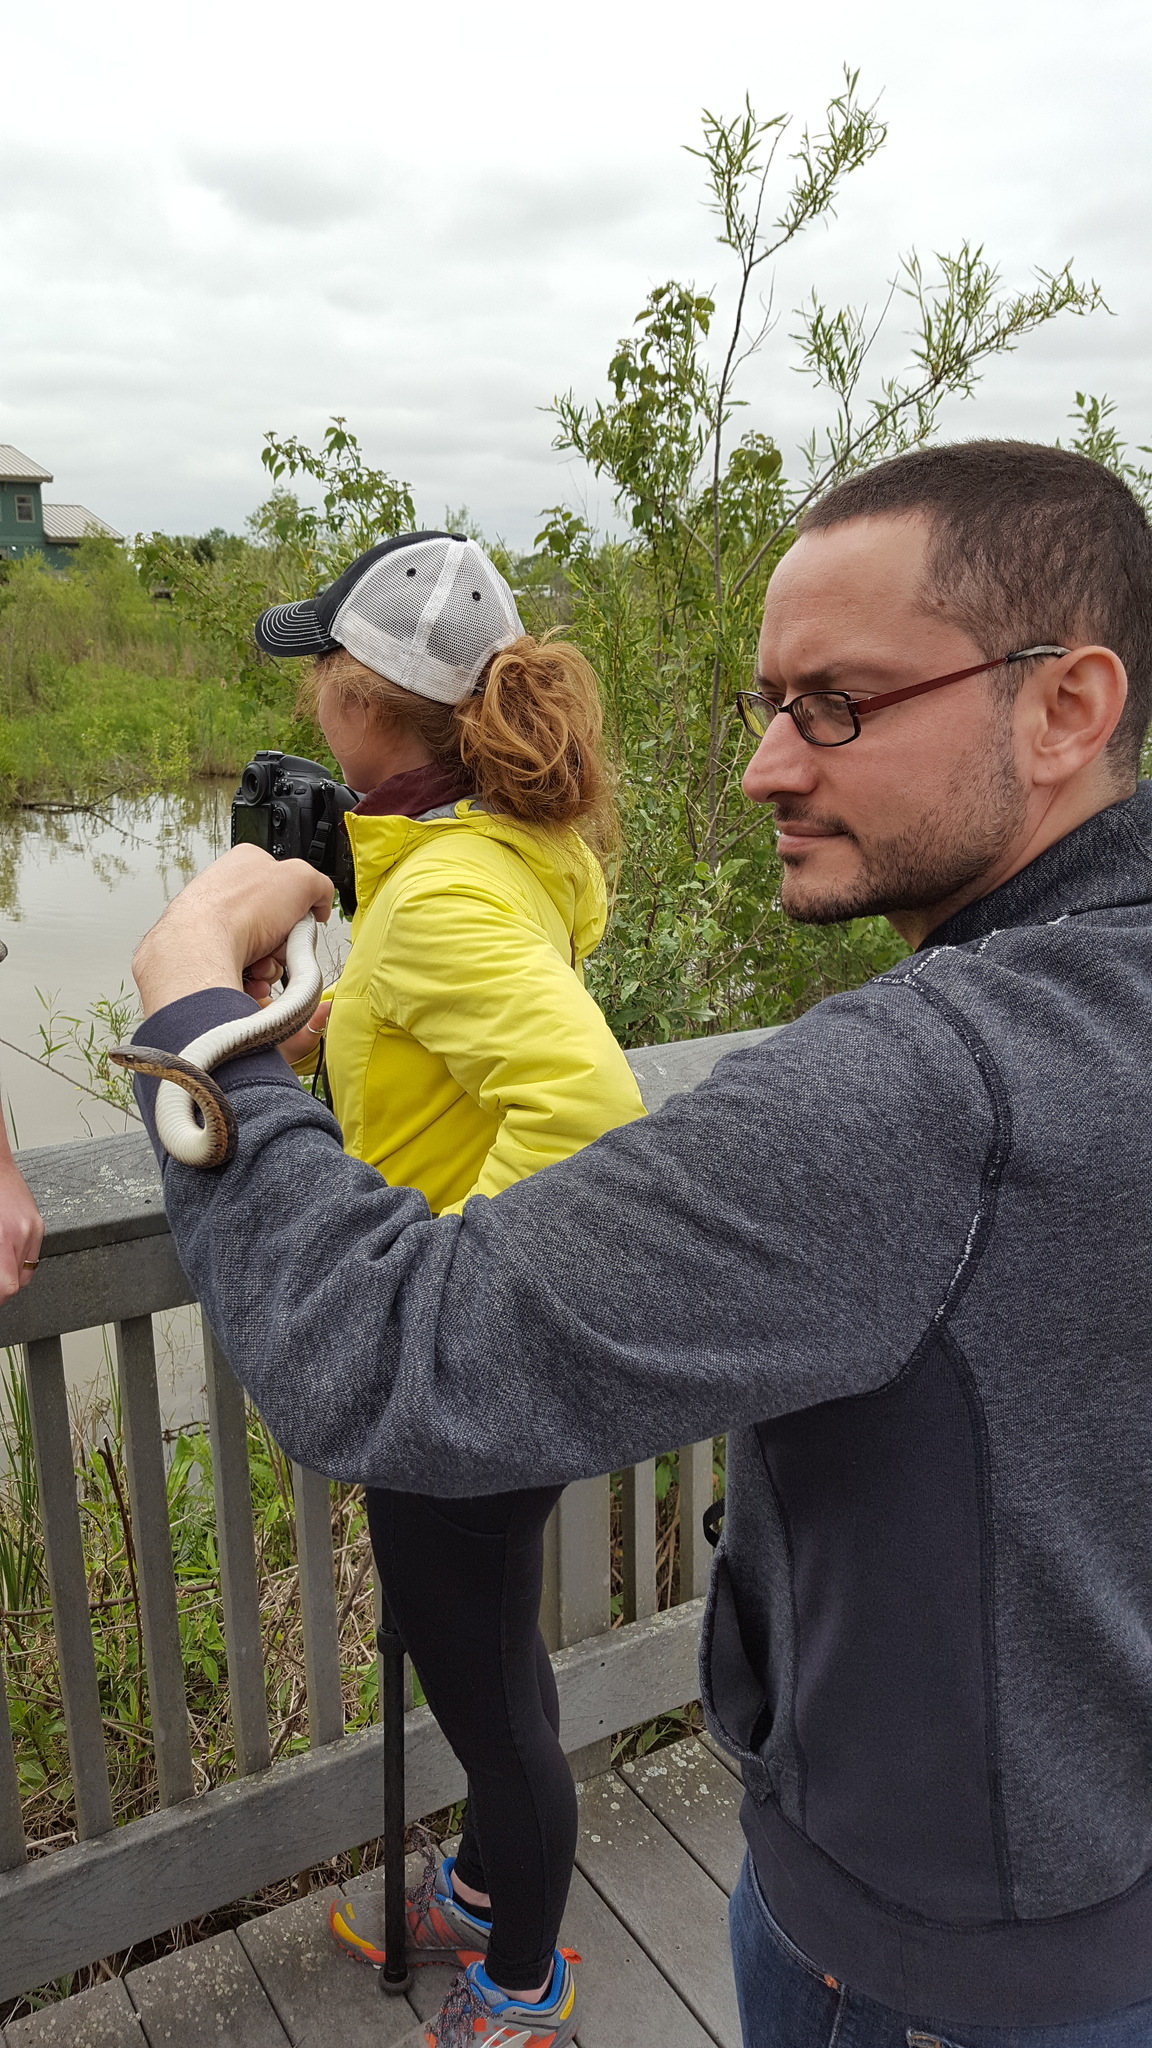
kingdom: Animalia
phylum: Chordata
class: Squamata
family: Colubridae
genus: Thamnophis
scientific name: Thamnophis sirtalis
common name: Common garter snake
